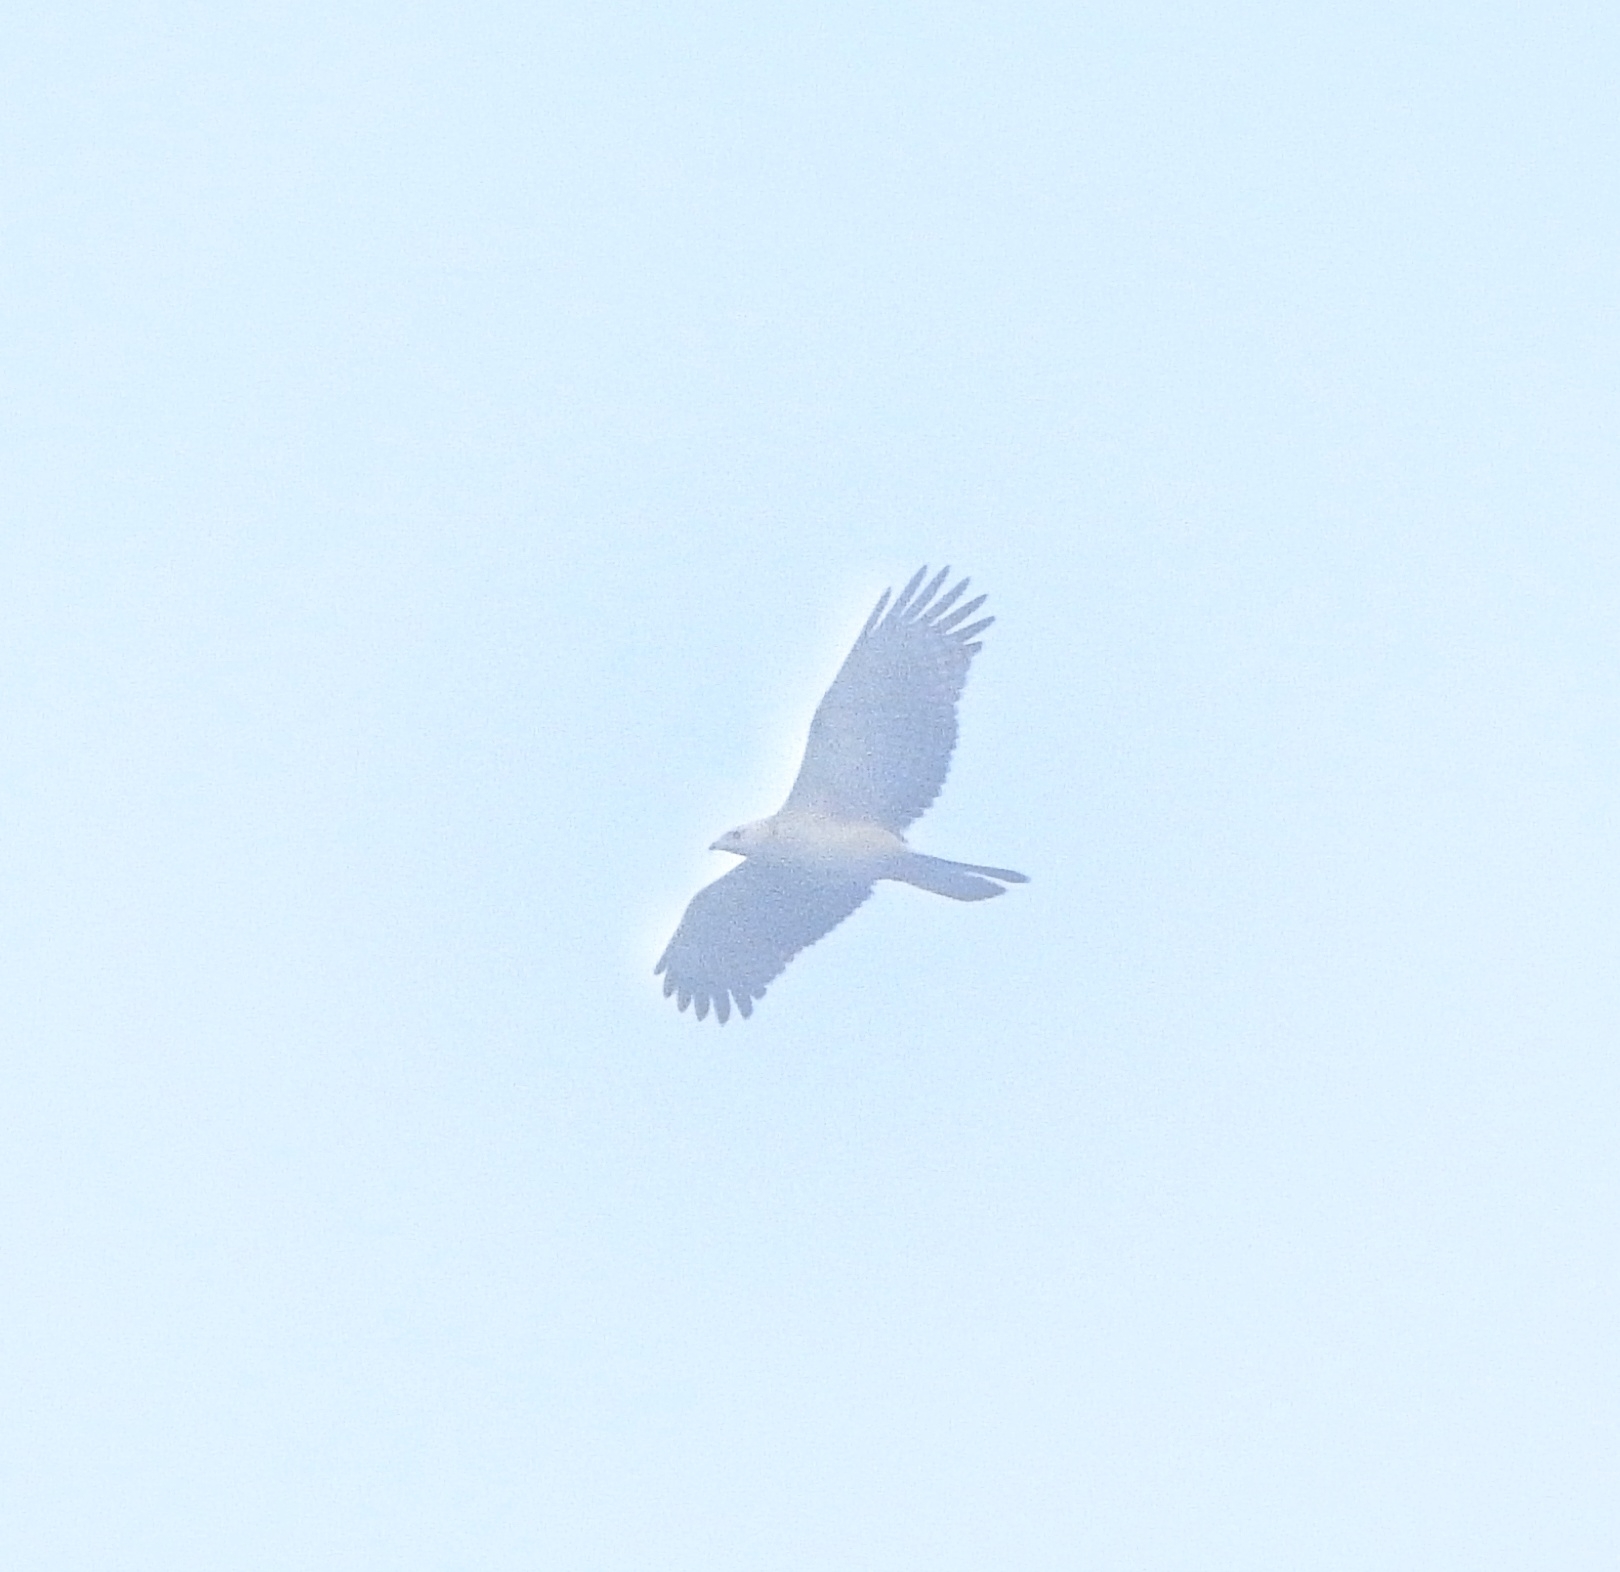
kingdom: Animalia
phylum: Chordata
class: Aves
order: Accipitriformes
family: Accipitridae
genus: Pernis
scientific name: Pernis ptilorhynchus
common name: Crested honey buzzard
